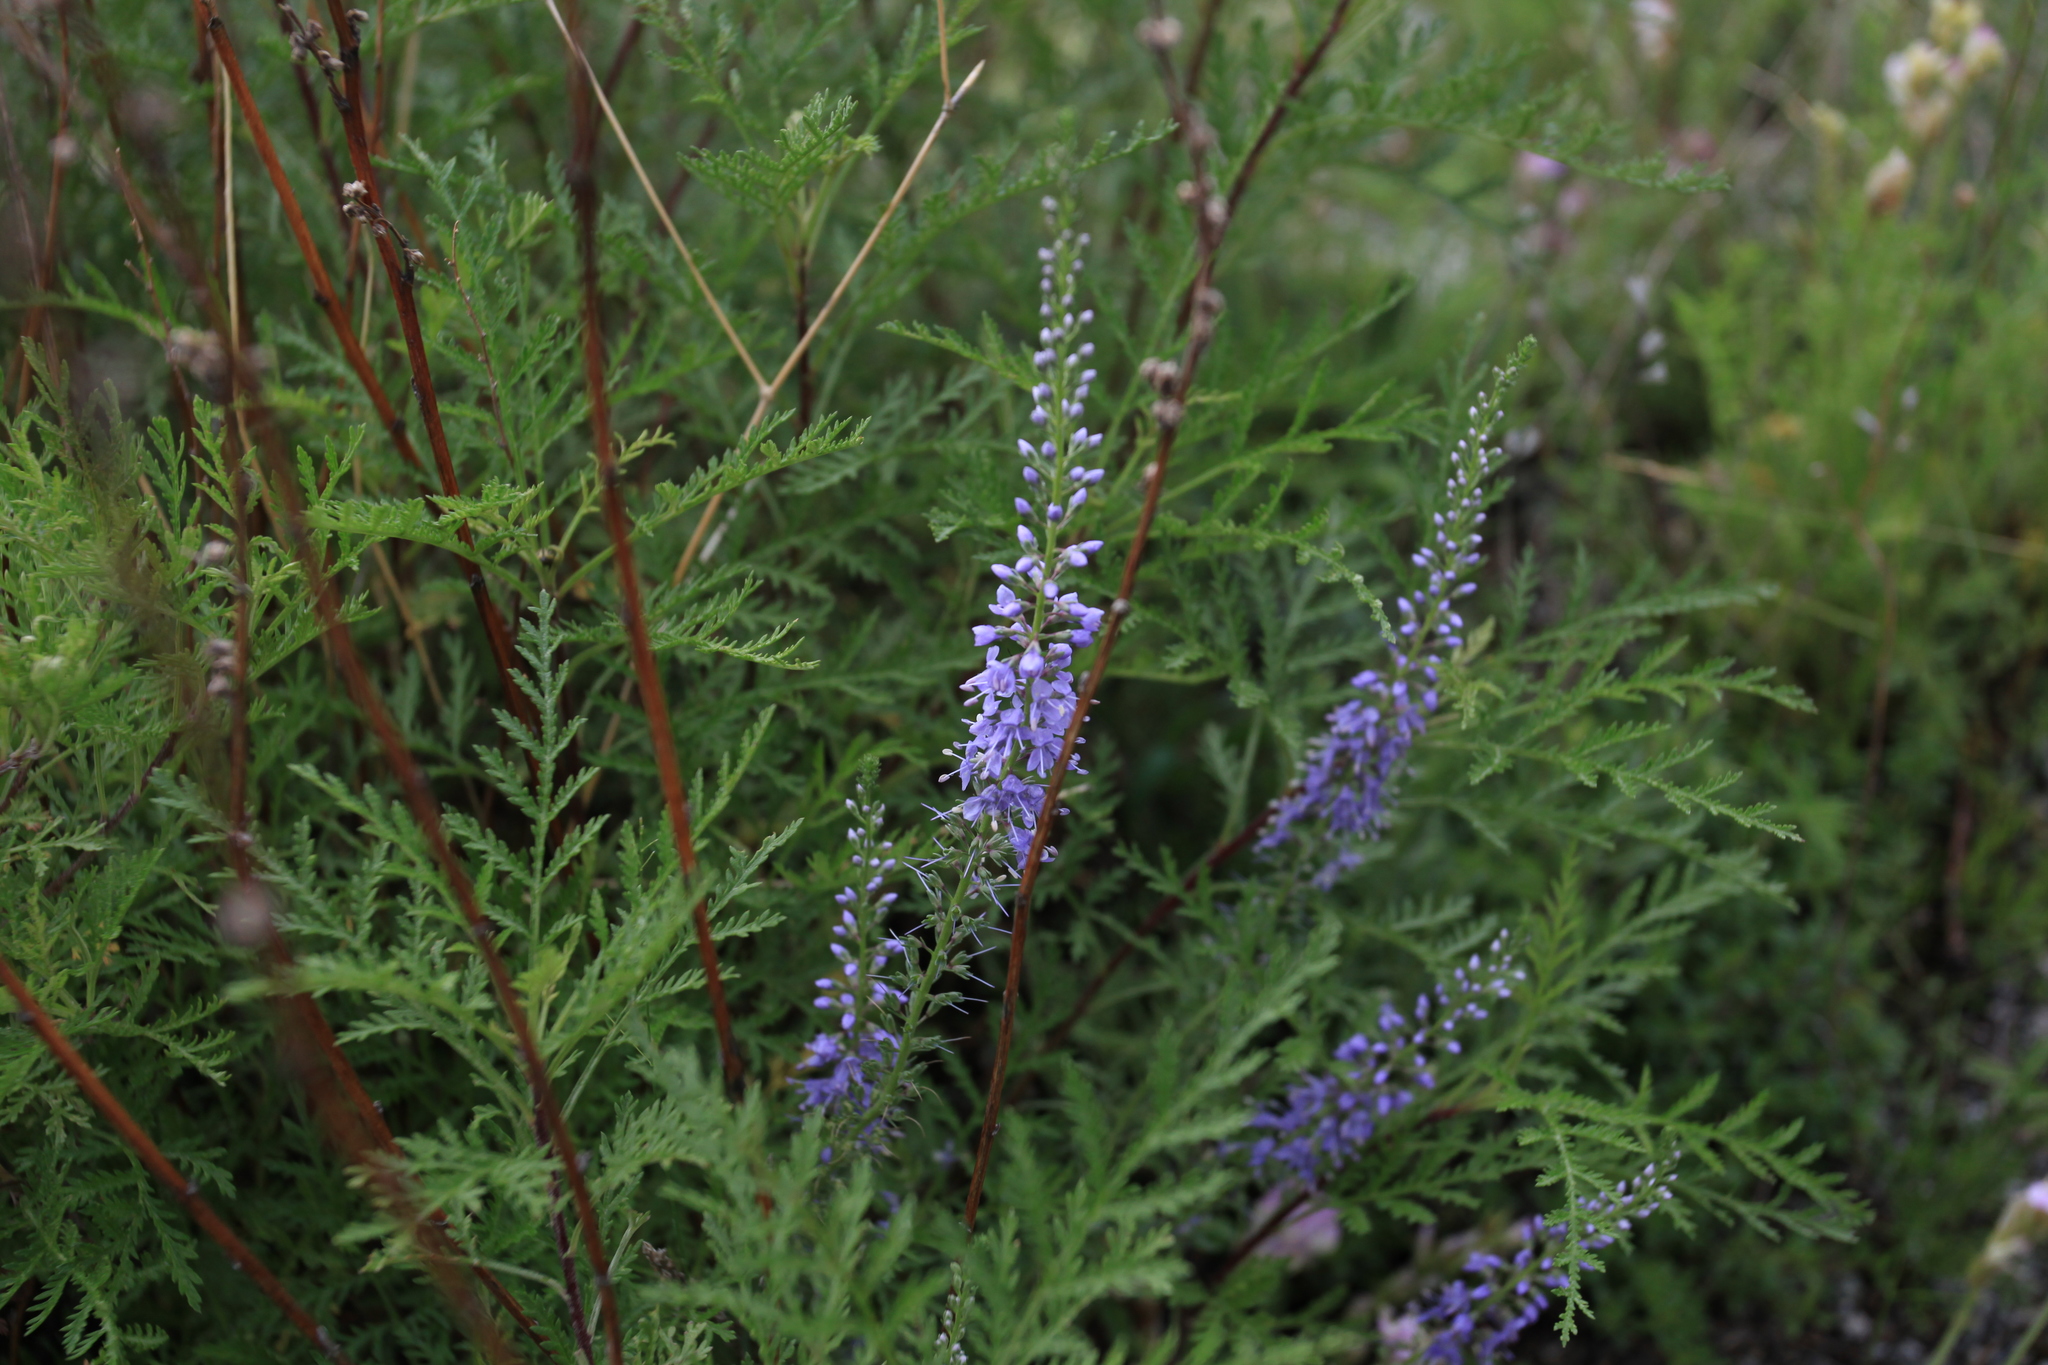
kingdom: Plantae
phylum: Tracheophyta
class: Magnoliopsida
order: Lamiales
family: Plantaginaceae
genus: Veronica
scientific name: Veronica longifolia
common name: Garden speedwell
